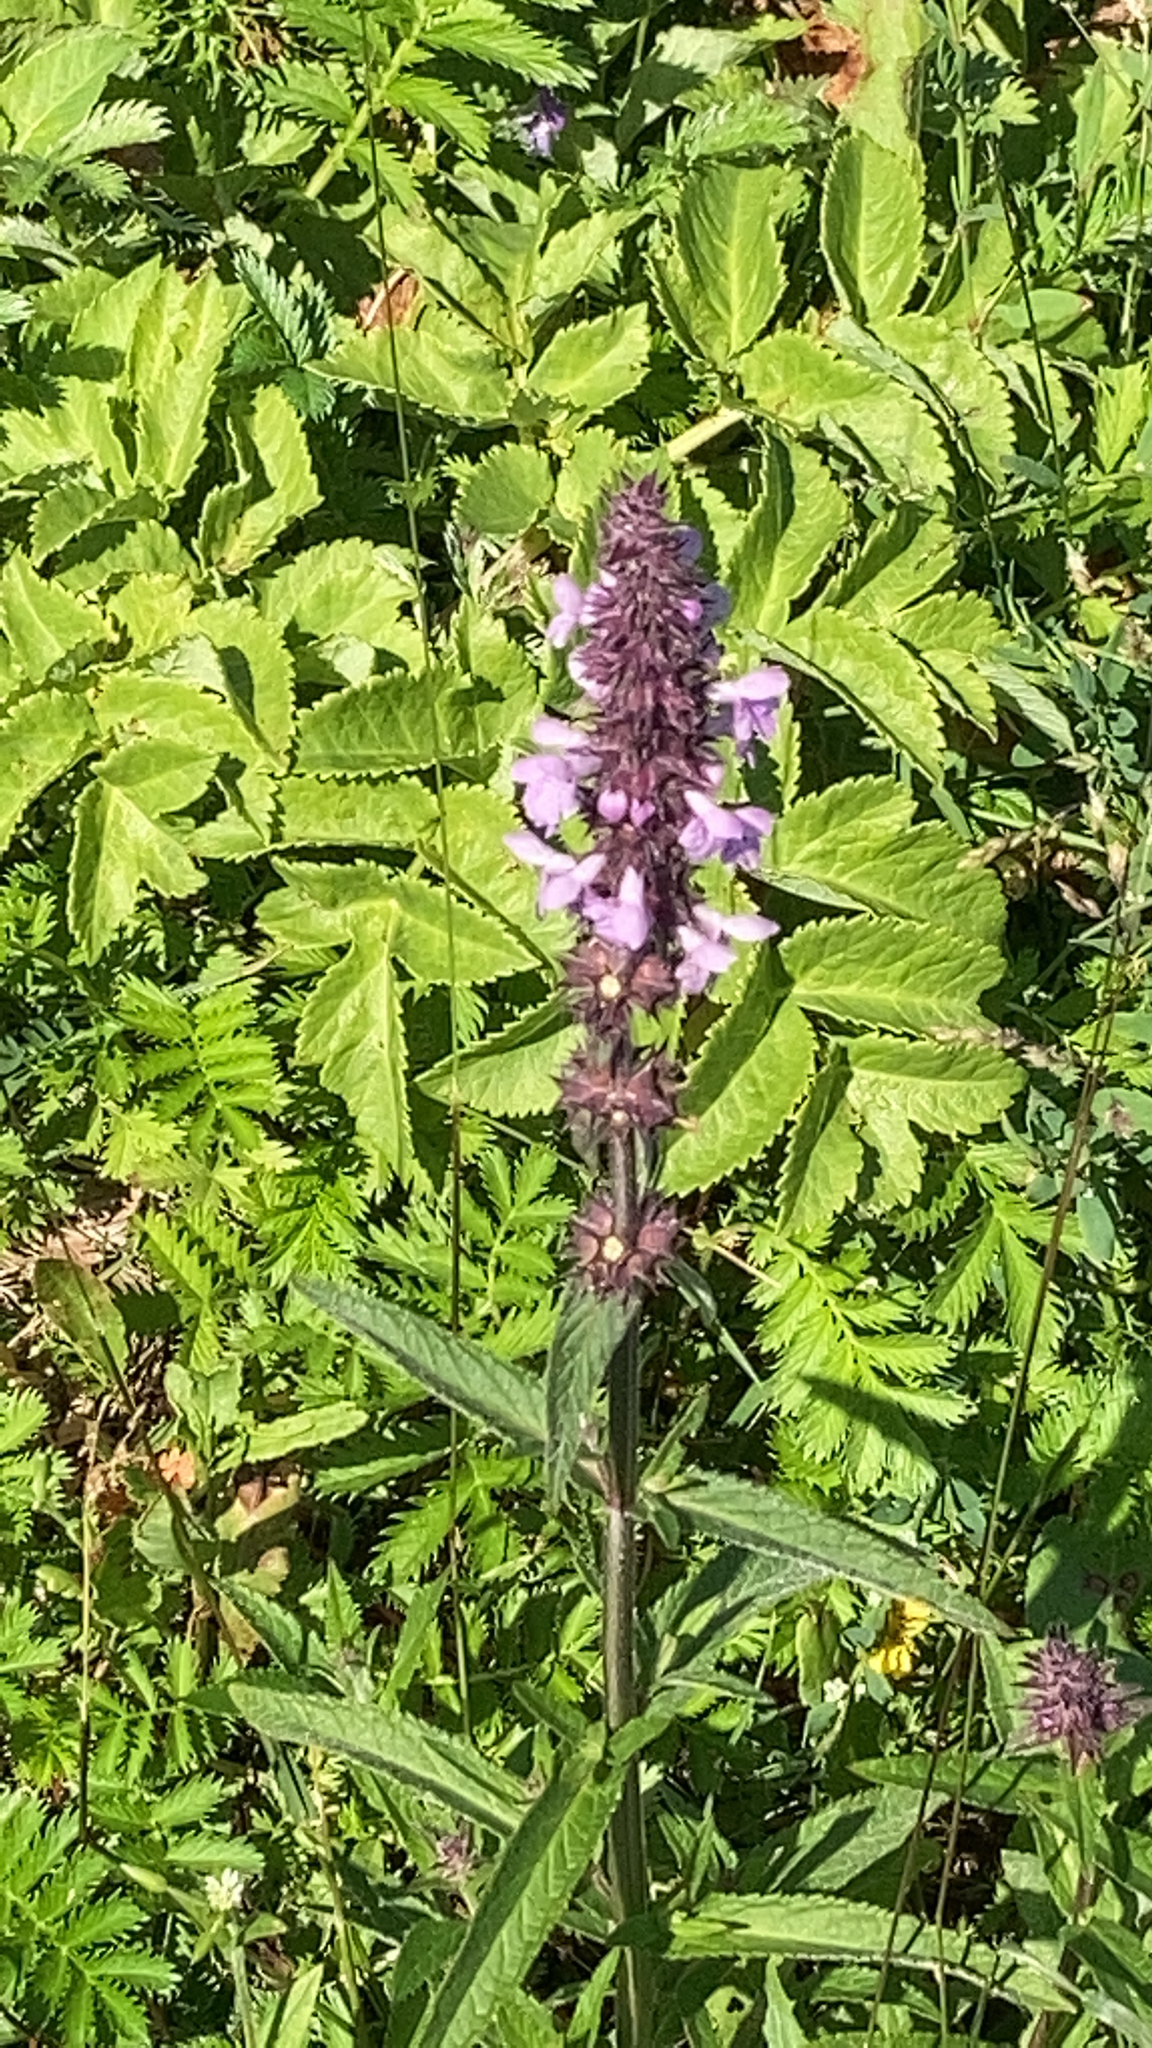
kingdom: Plantae
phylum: Tracheophyta
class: Magnoliopsida
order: Lamiales
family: Lamiaceae
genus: Stachys
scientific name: Stachys palustris
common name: Marsh woundwort
